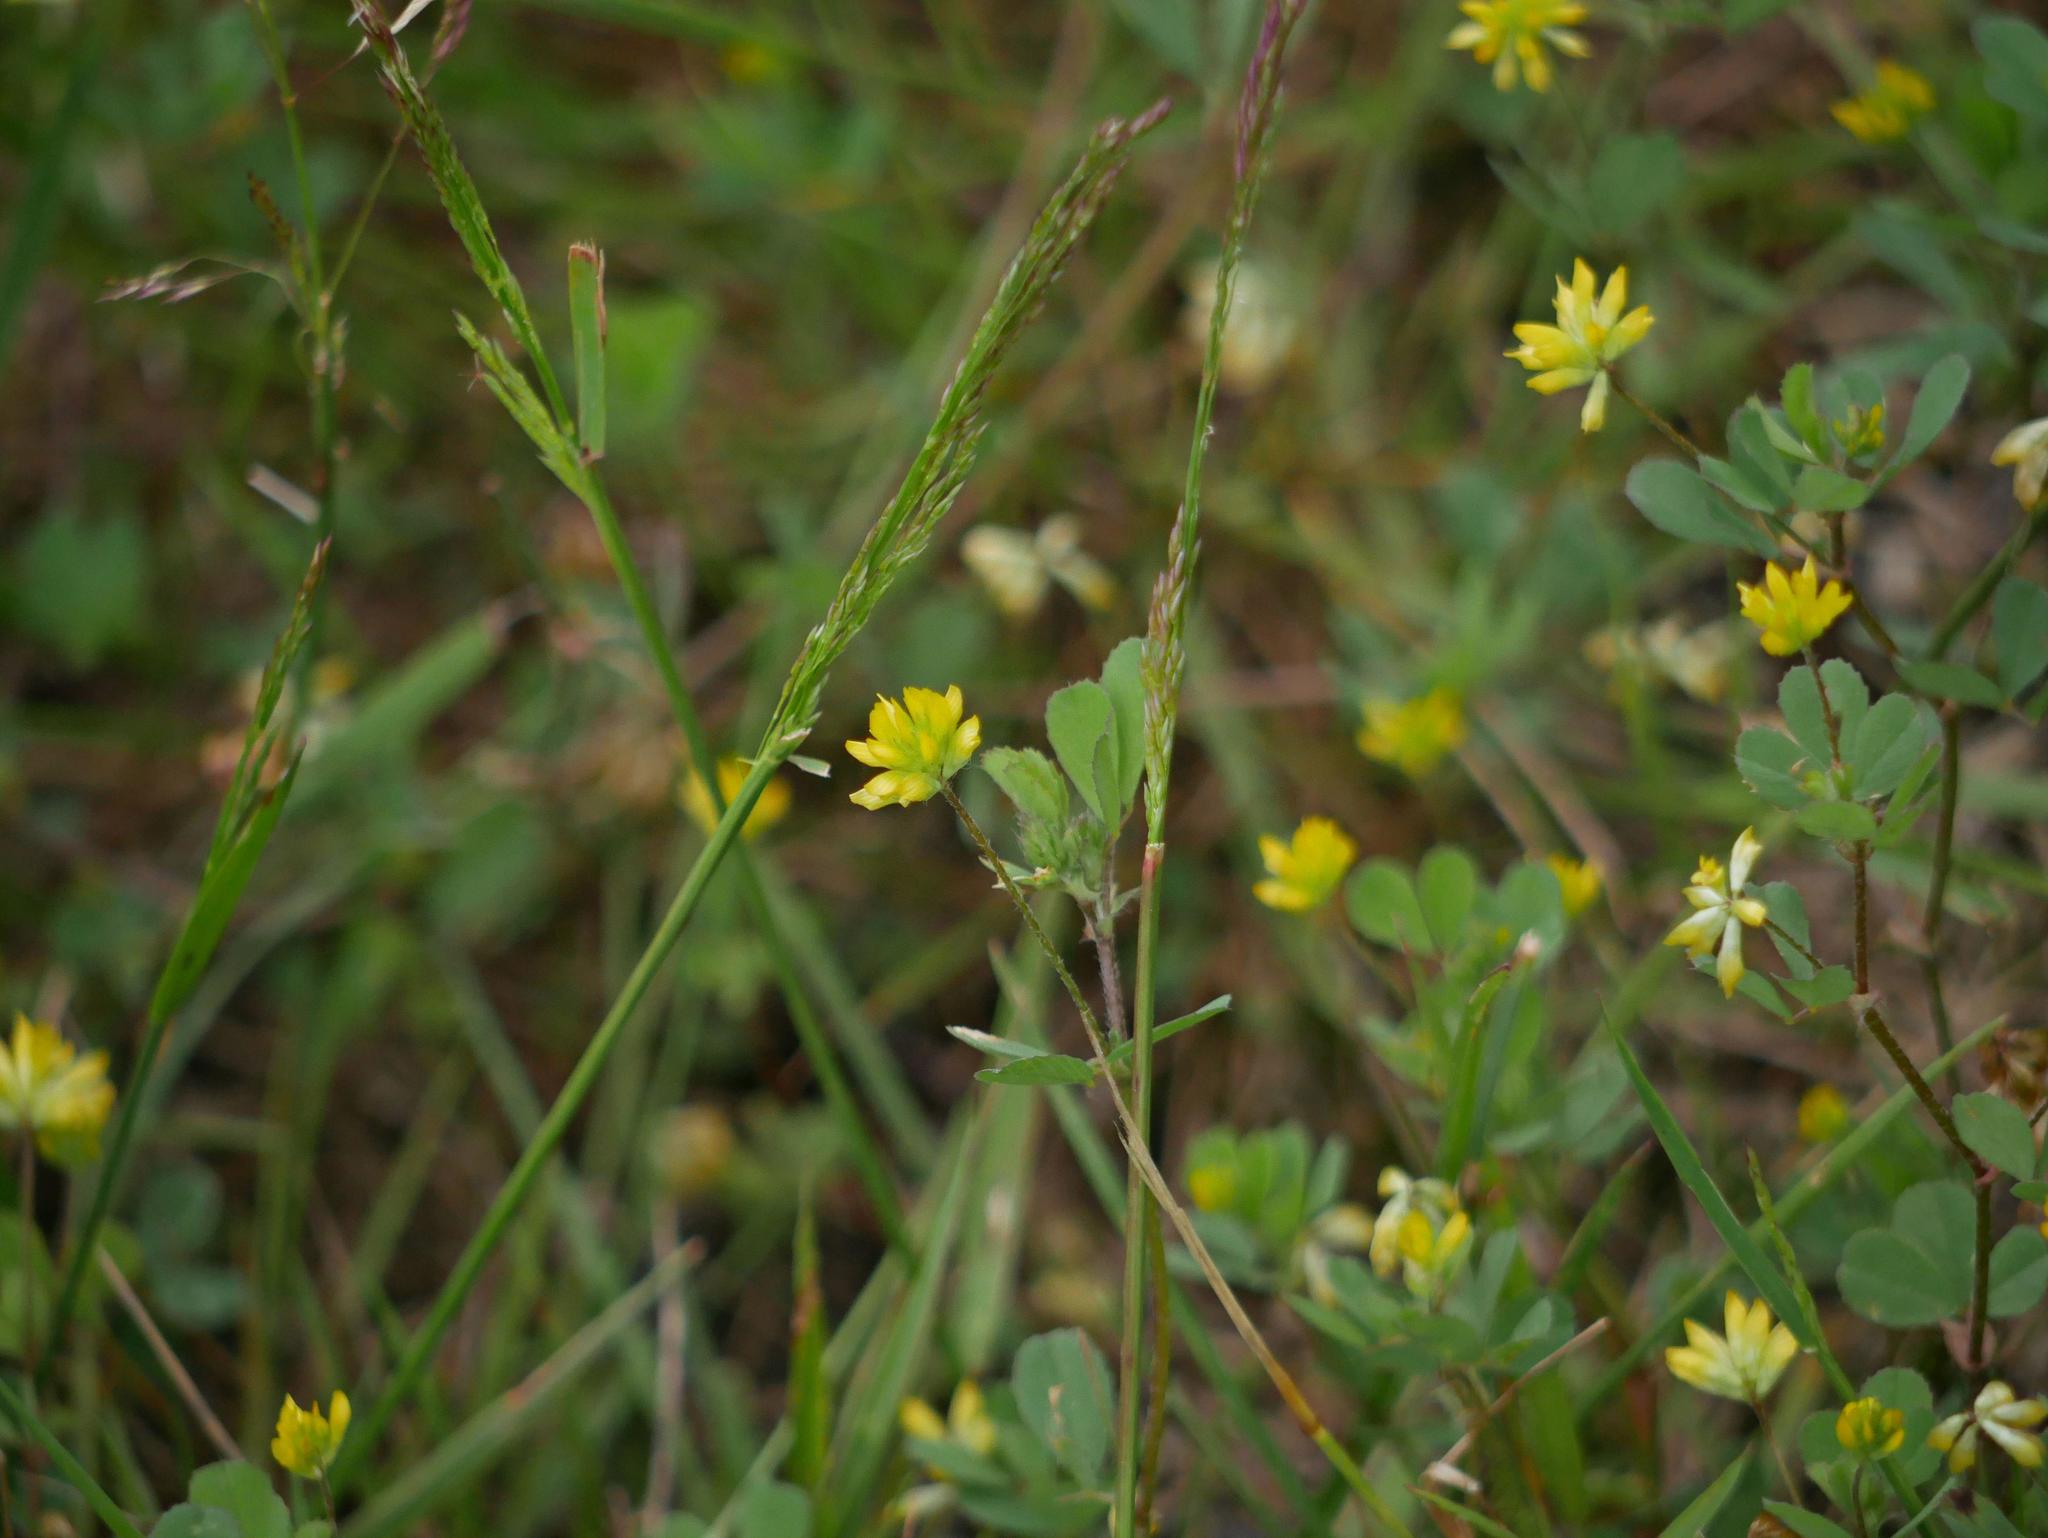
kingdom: Plantae
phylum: Tracheophyta
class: Magnoliopsida
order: Fabales
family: Fabaceae
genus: Trifolium
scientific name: Trifolium dubium
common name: Suckling clover
